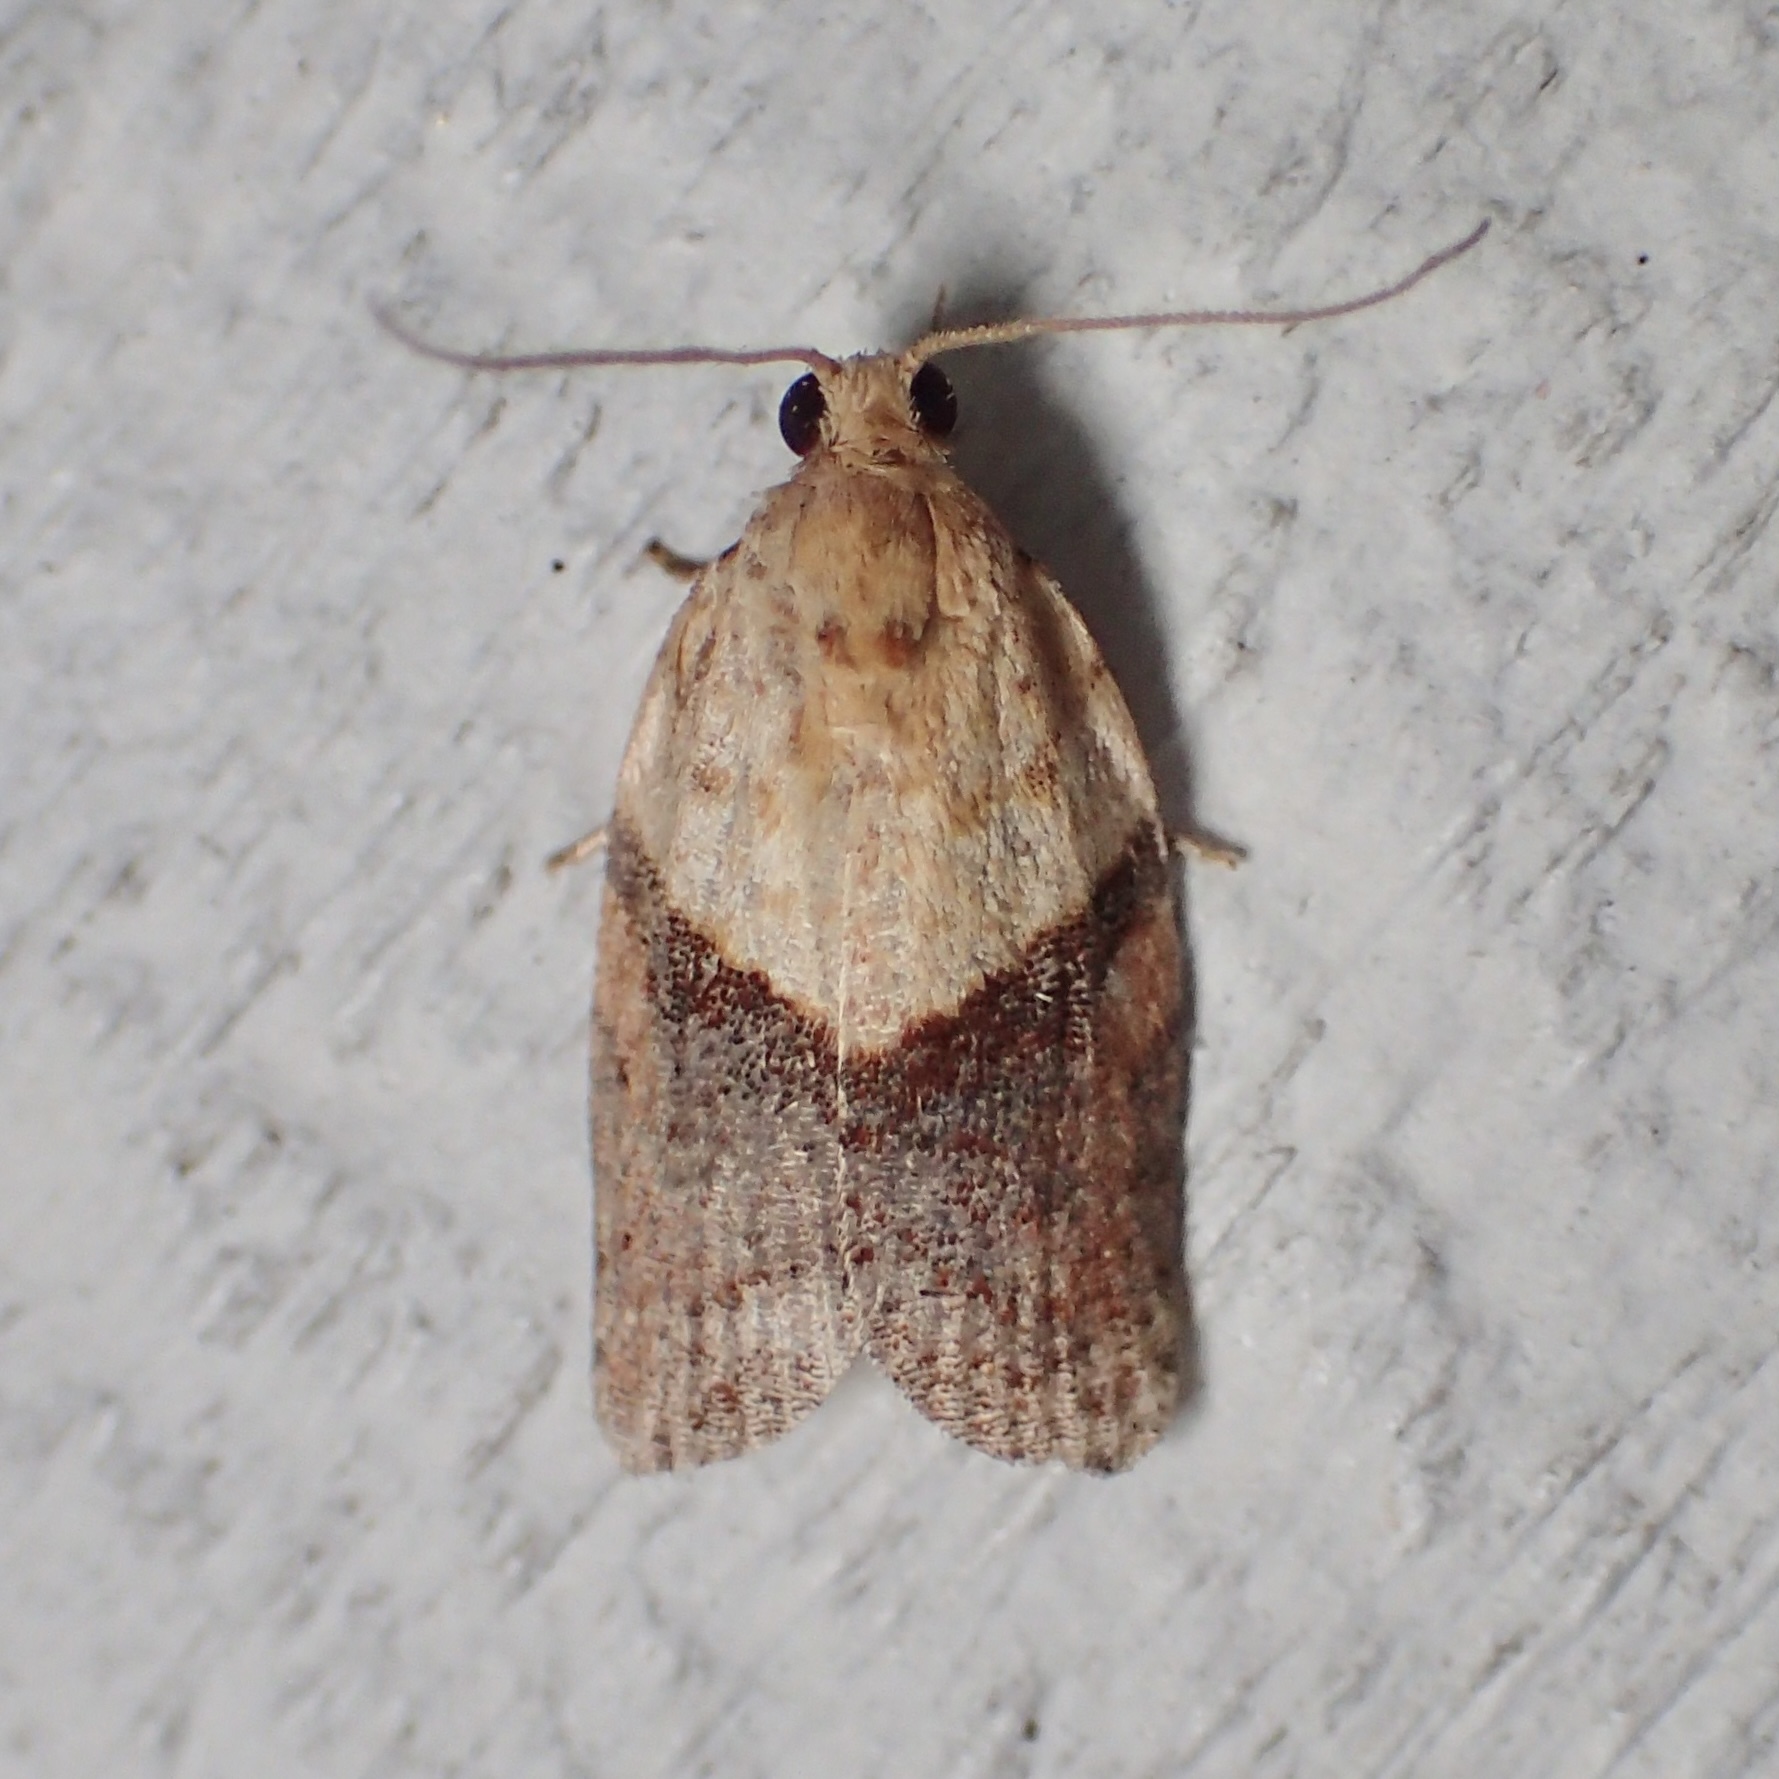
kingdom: Animalia
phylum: Arthropoda
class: Insecta
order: Lepidoptera
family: Tortricidae
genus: Epiphyas
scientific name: Epiphyas postvittana
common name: Light brown apple moth
